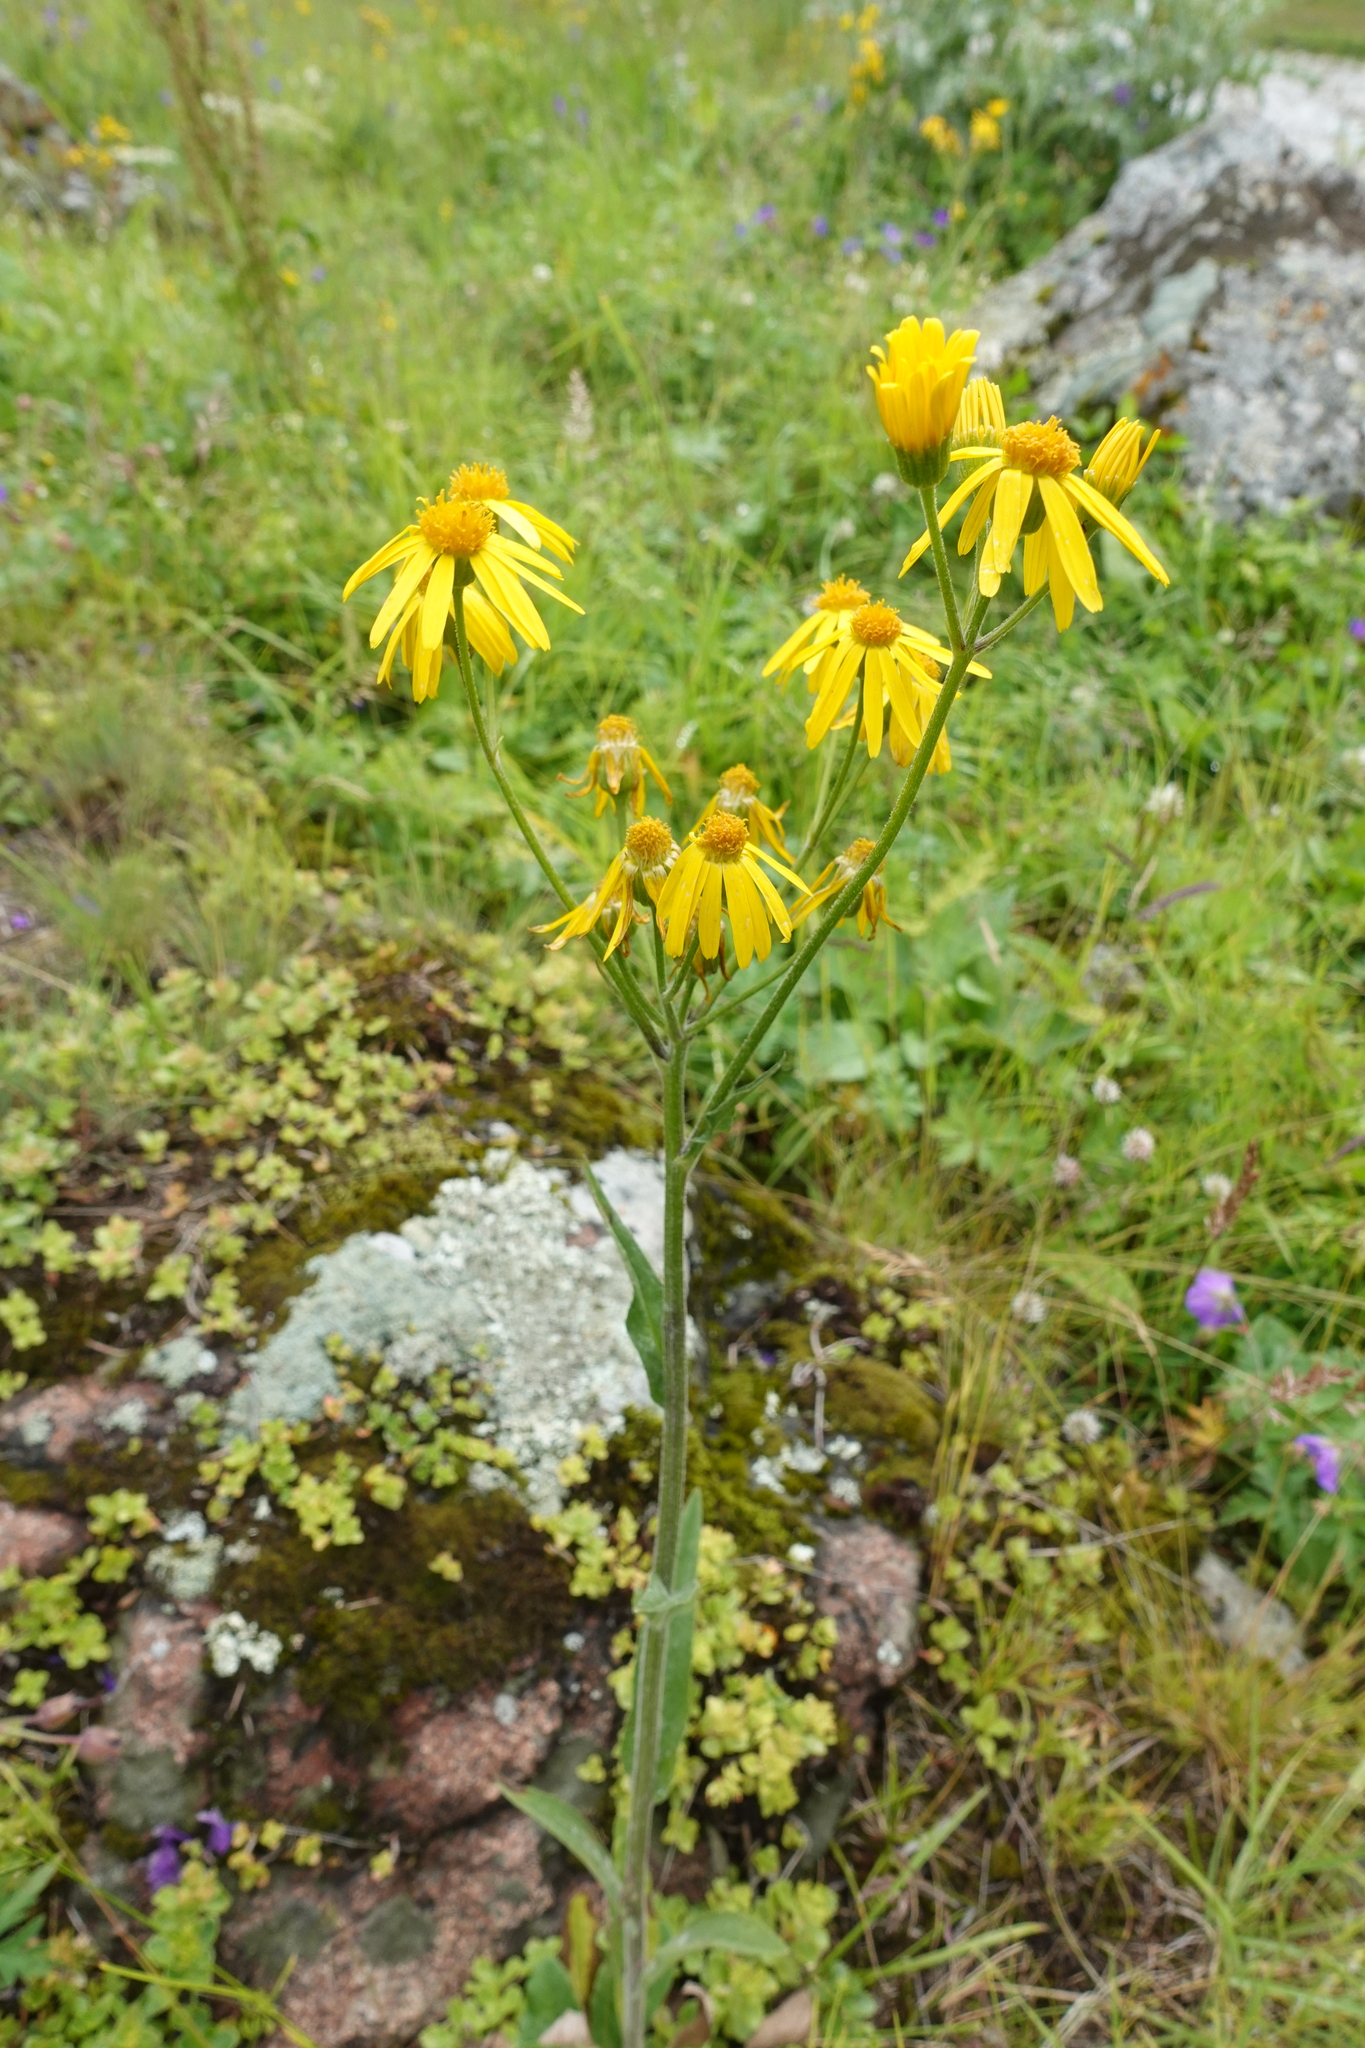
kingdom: Plantae
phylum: Tracheophyta
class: Magnoliopsida
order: Asterales
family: Asteraceae
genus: Tephroseris
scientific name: Tephroseris cladobotrys
